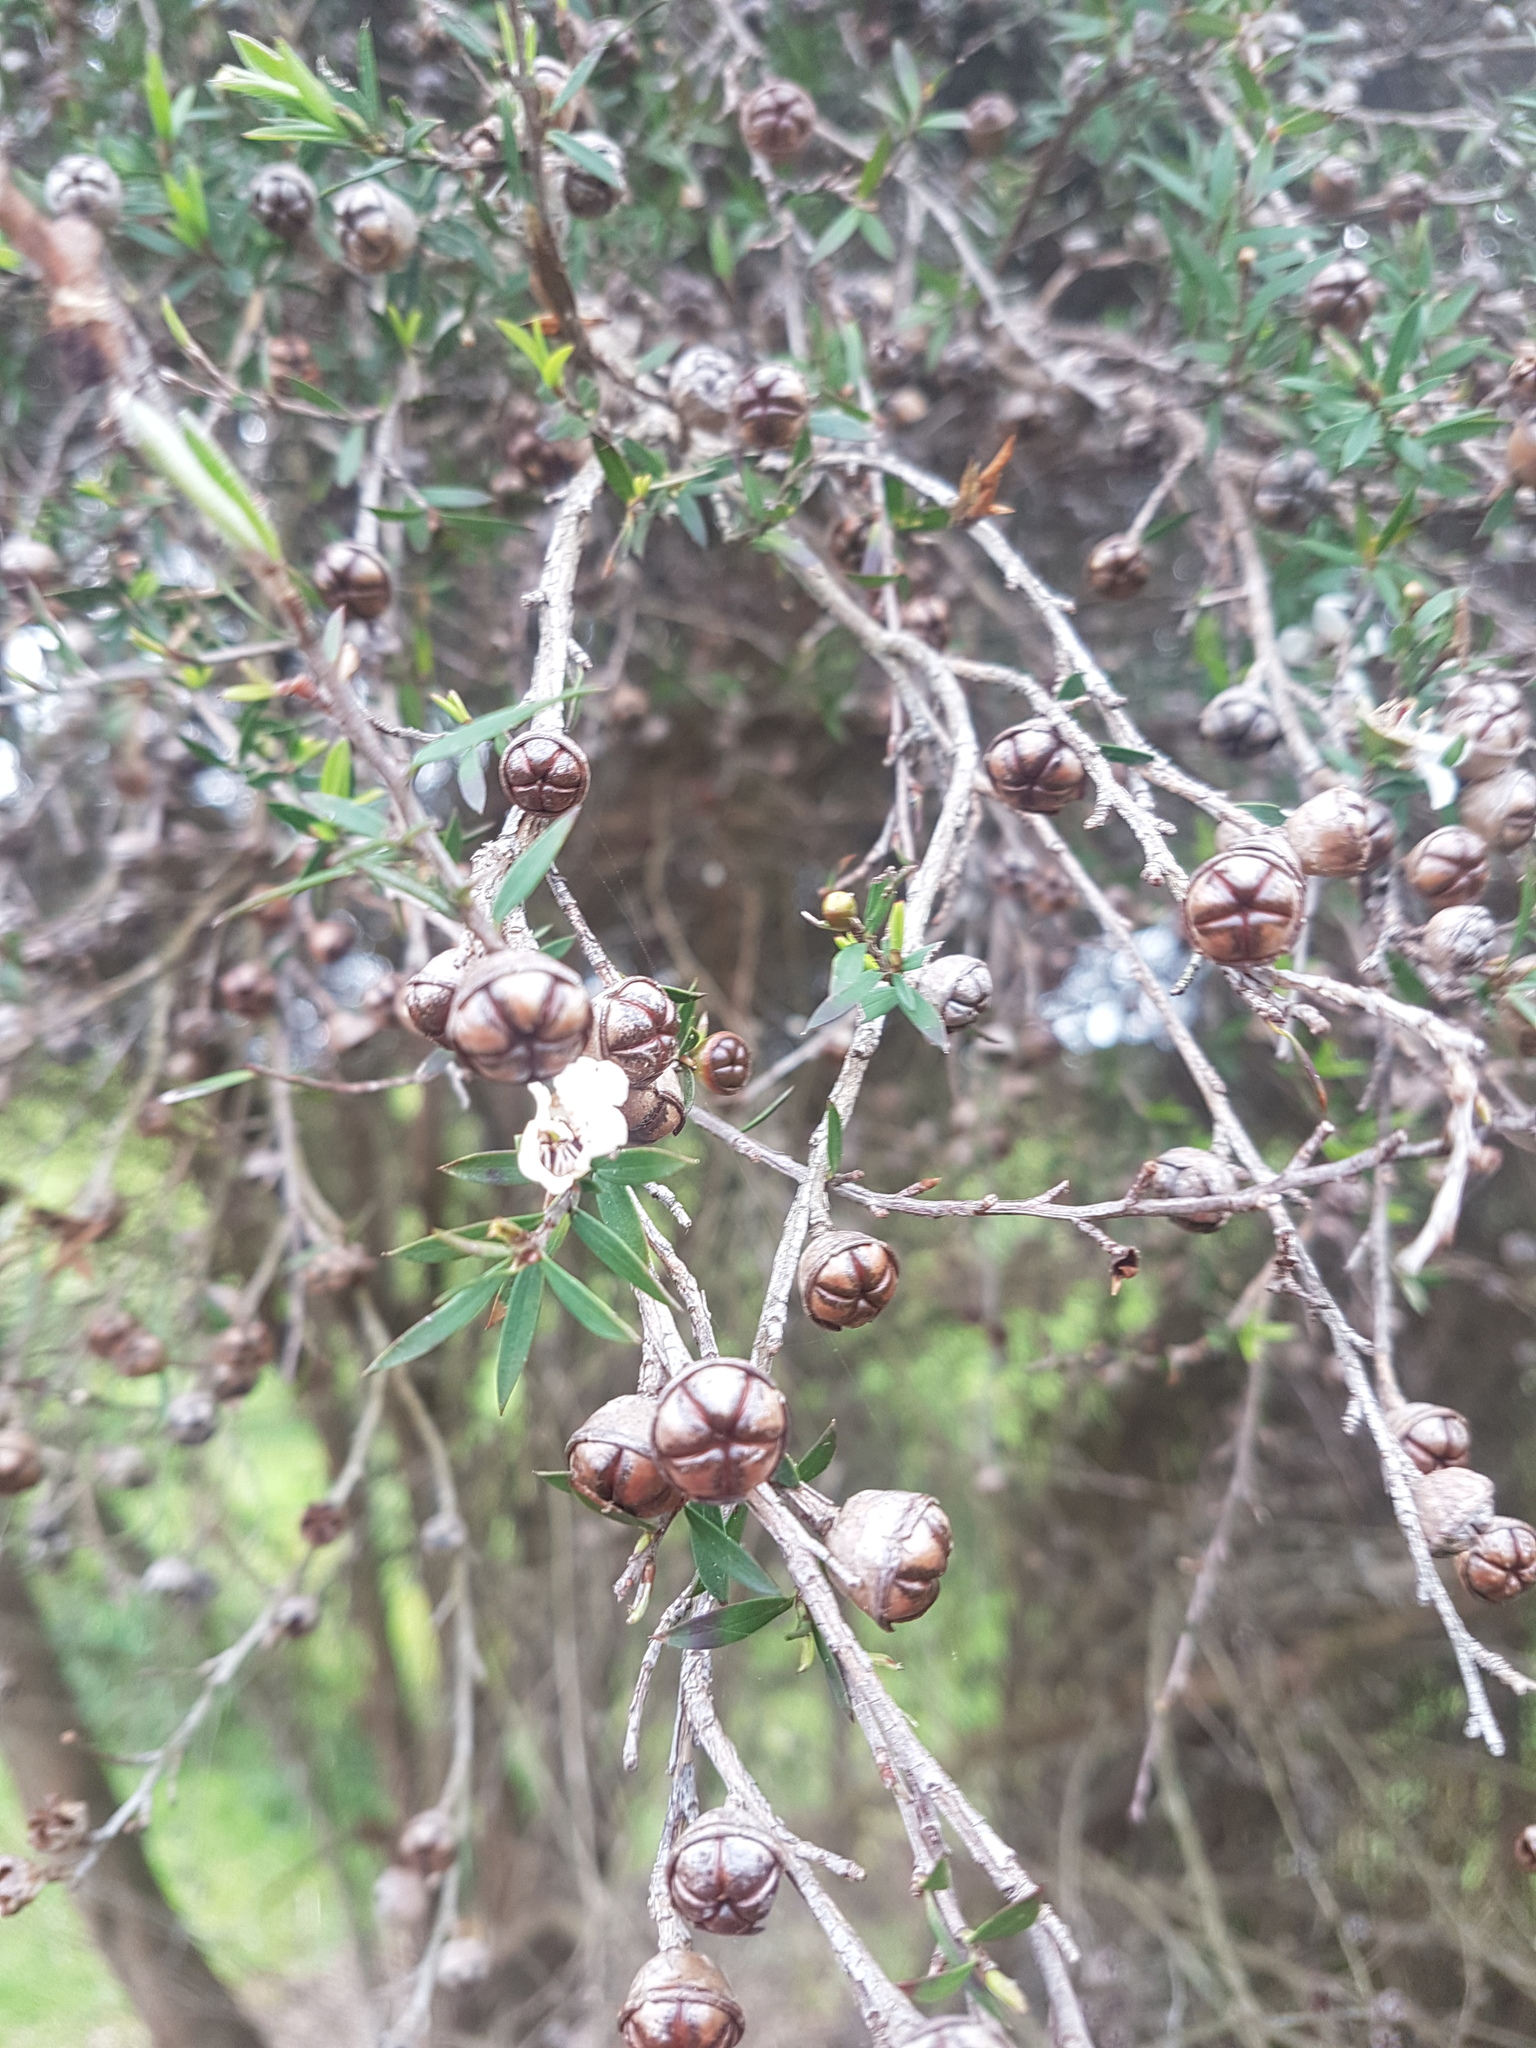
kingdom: Plantae
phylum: Tracheophyta
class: Magnoliopsida
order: Myrtales
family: Myrtaceae
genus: Leptospermum
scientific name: Leptospermum scoparium
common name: Broom tea-tree
